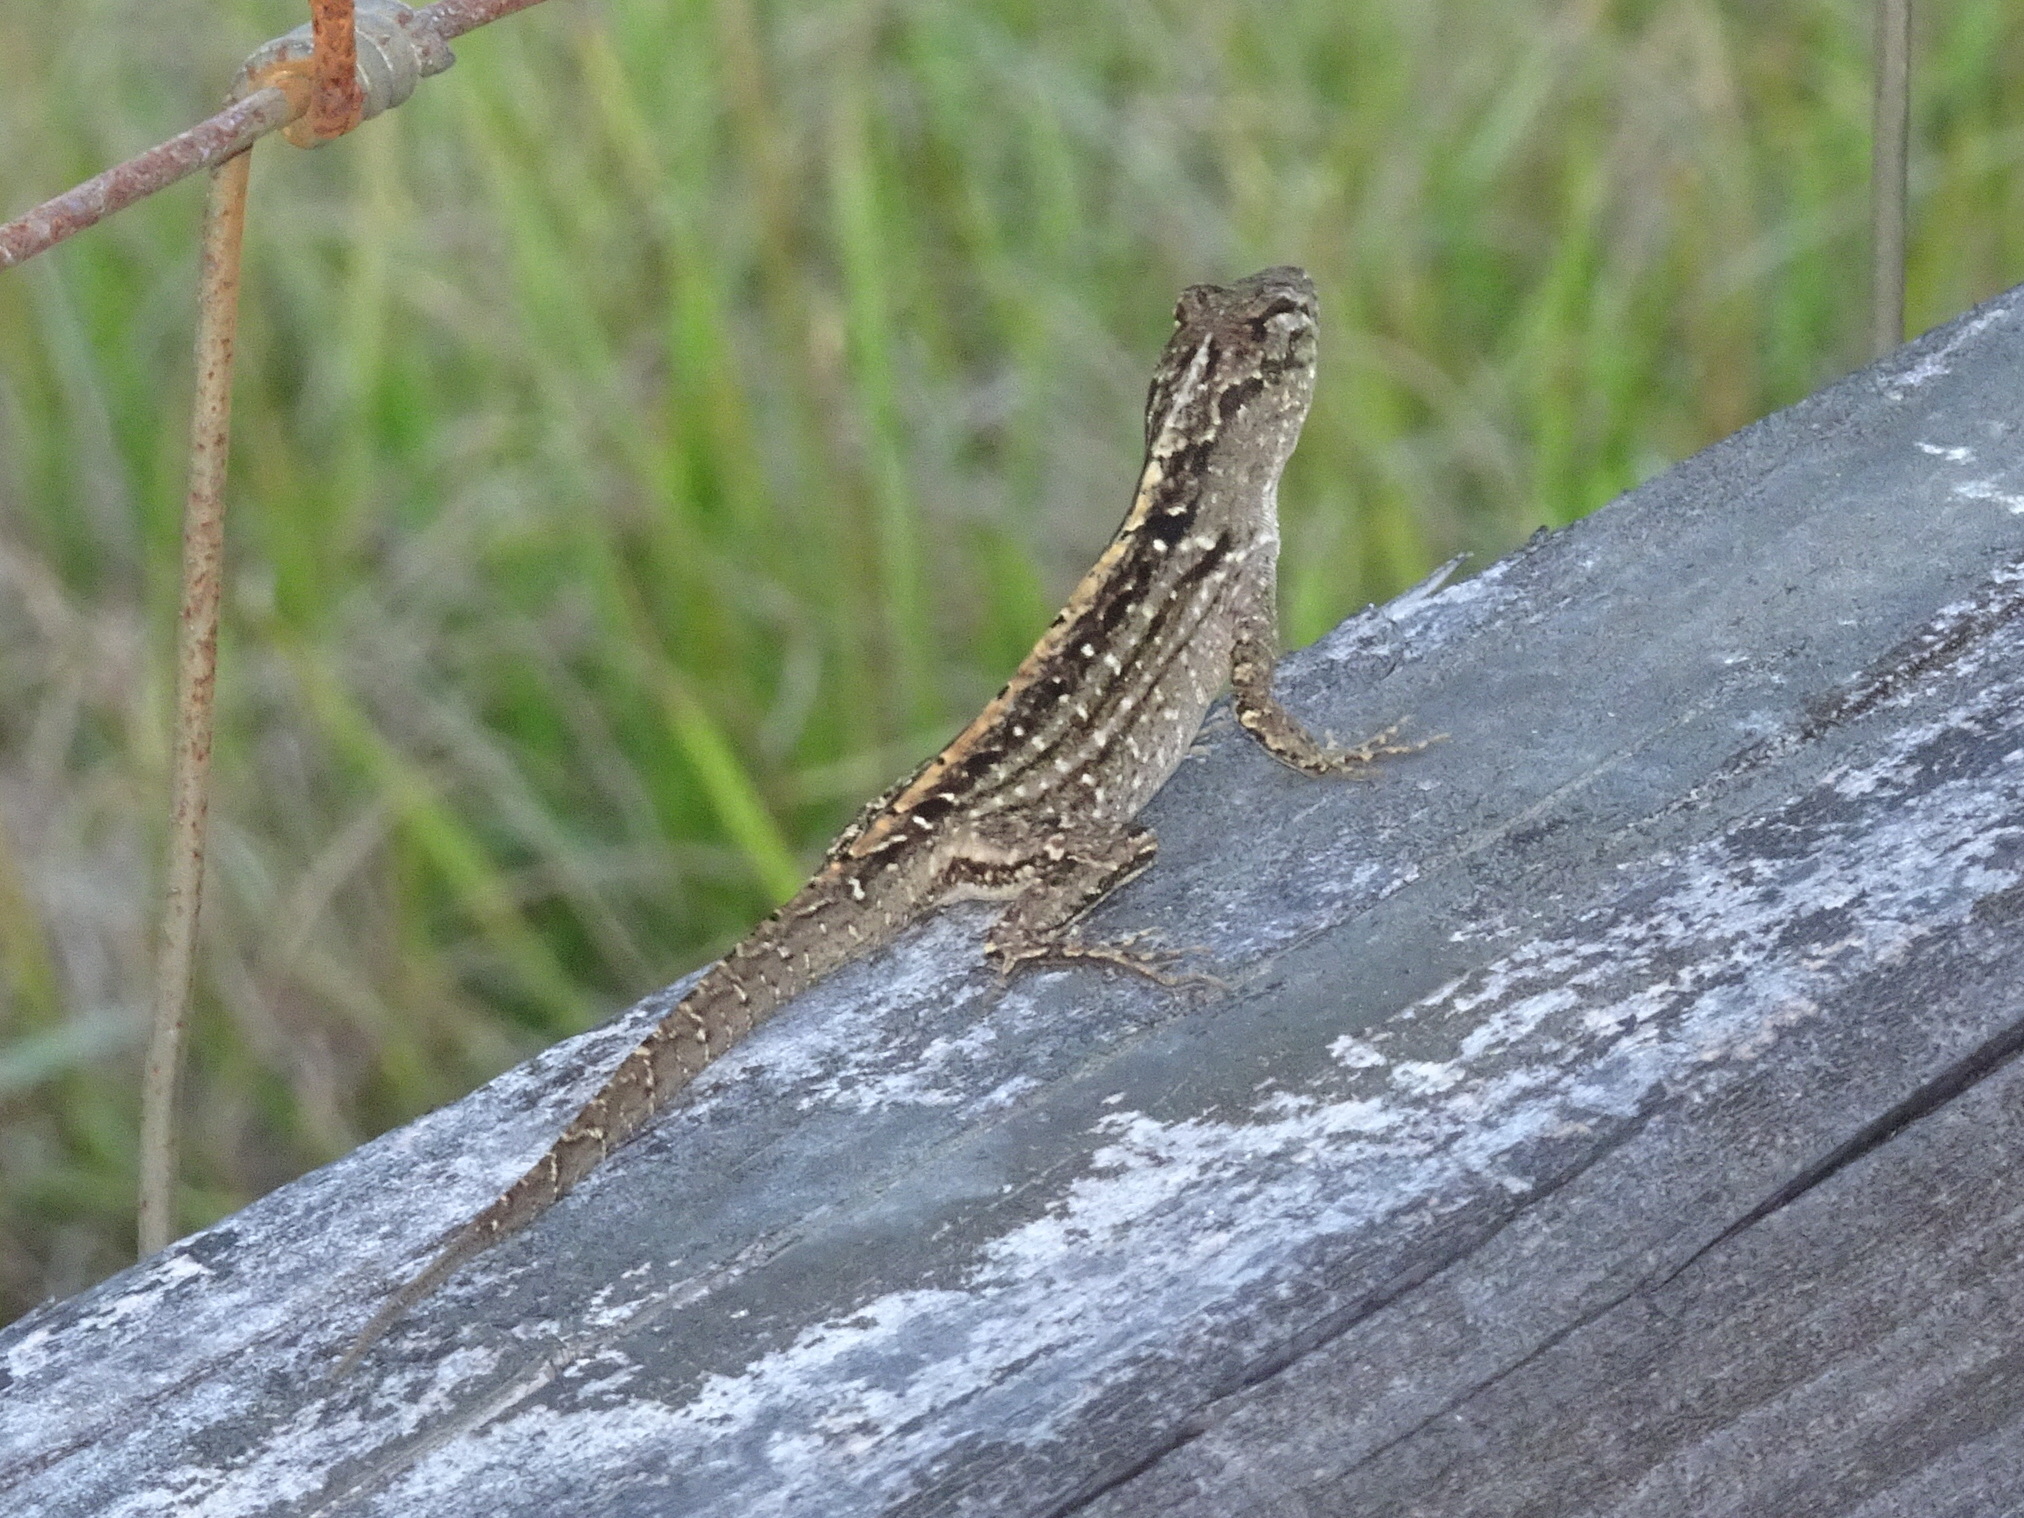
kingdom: Animalia
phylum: Chordata
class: Squamata
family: Dactyloidae
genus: Anolis
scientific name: Anolis sagrei
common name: Brown anole
